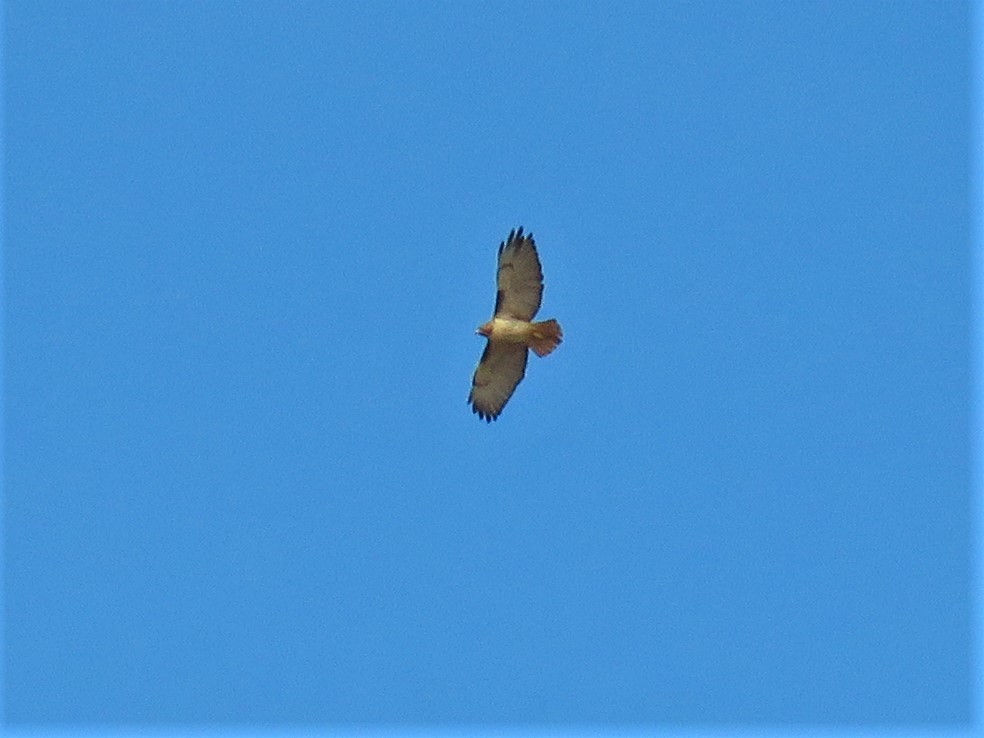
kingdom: Animalia
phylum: Chordata
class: Aves
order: Accipitriformes
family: Accipitridae
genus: Buteo
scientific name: Buteo jamaicensis
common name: Red-tailed hawk
